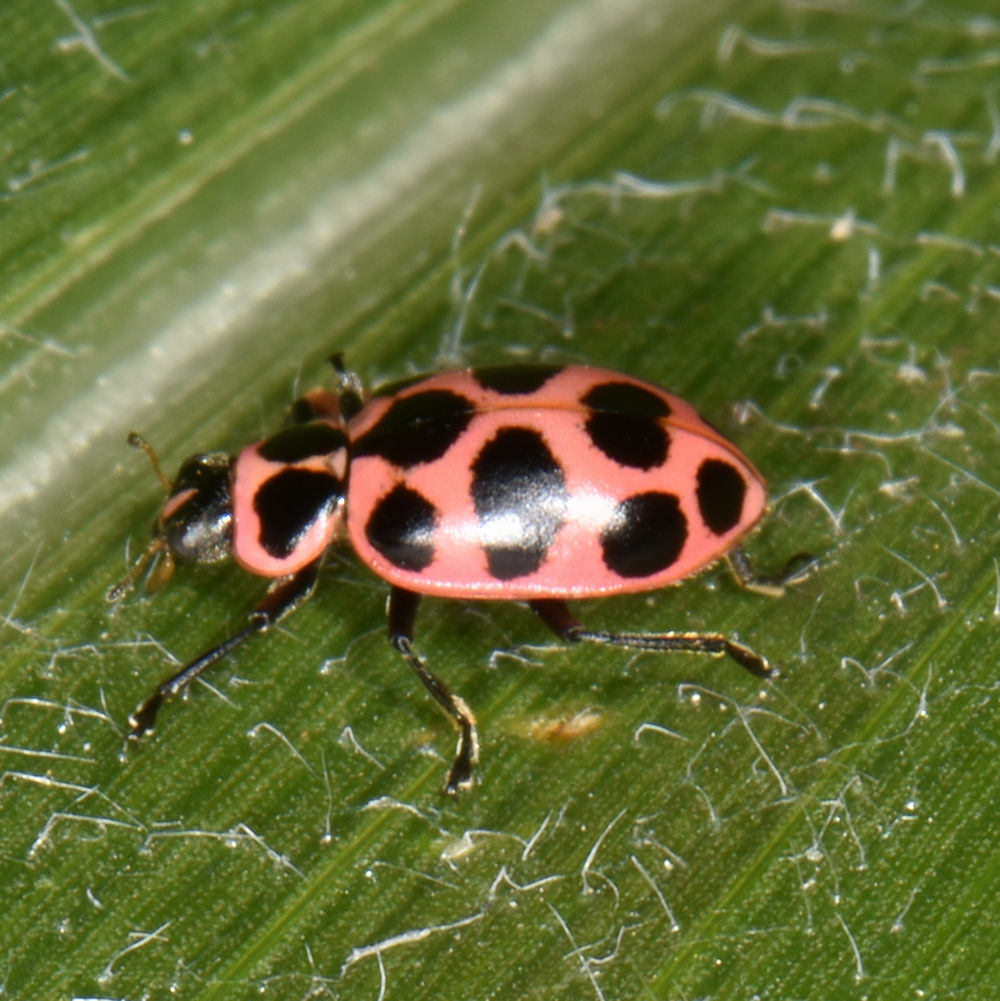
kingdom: Animalia
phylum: Arthropoda
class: Insecta
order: Coleoptera
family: Coccinellidae
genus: Coleomegilla
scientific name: Coleomegilla maculata
